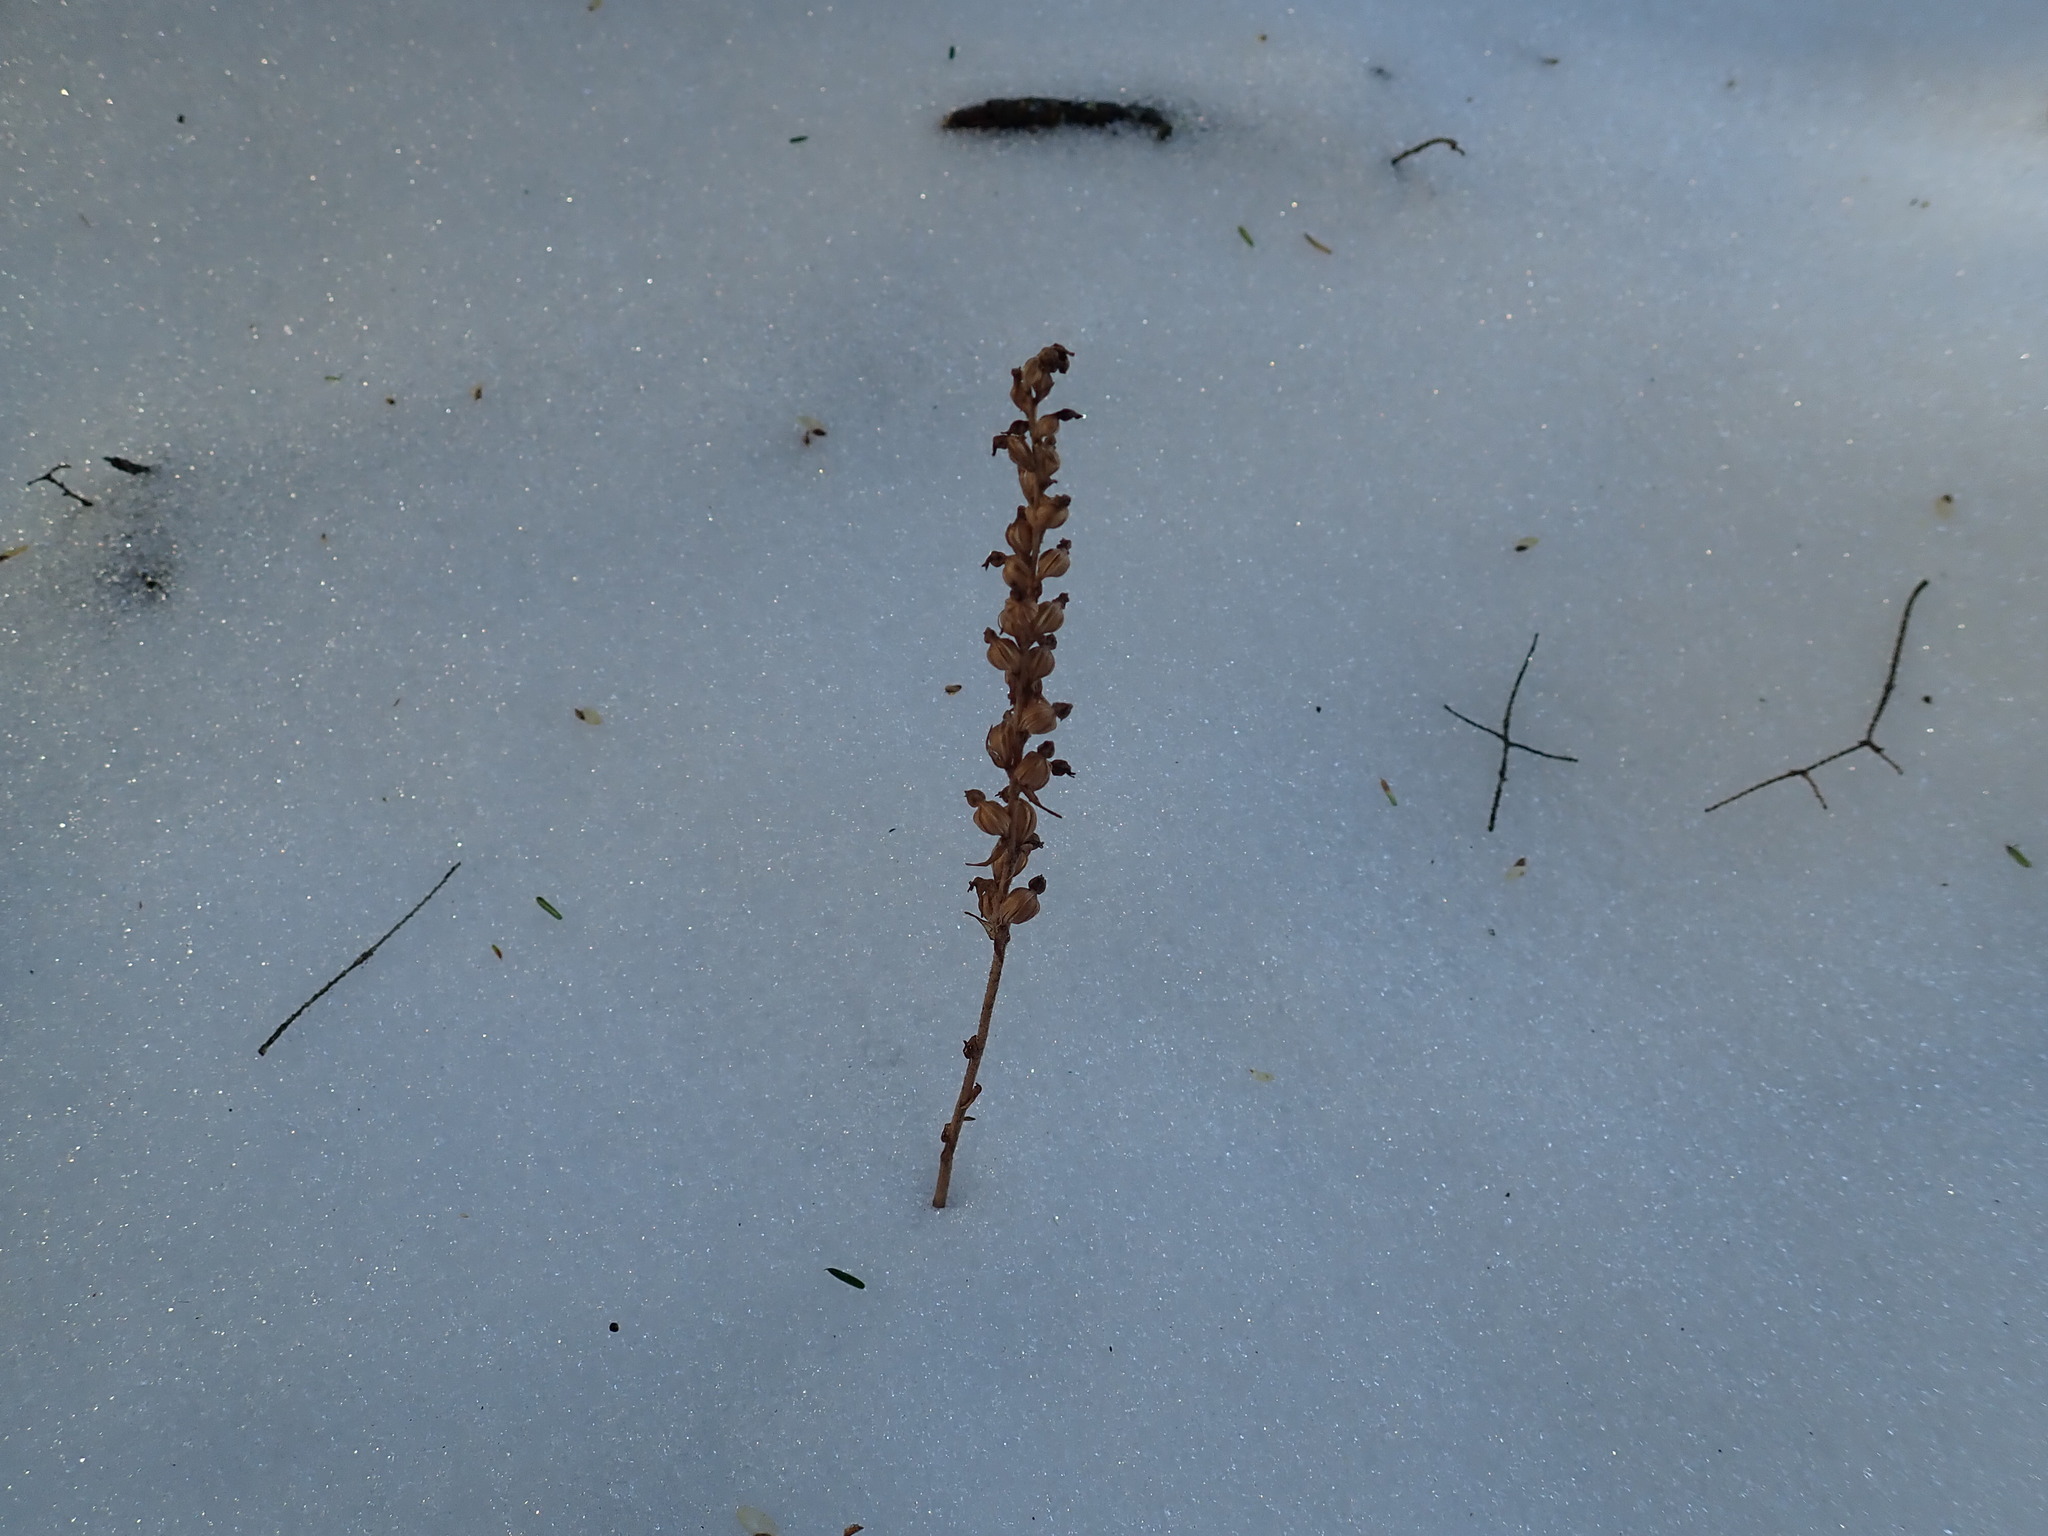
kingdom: Plantae
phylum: Tracheophyta
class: Liliopsida
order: Asparagales
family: Orchidaceae
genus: Goodyera
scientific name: Goodyera tesselata
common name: Checkered rattlesnake-plantain
